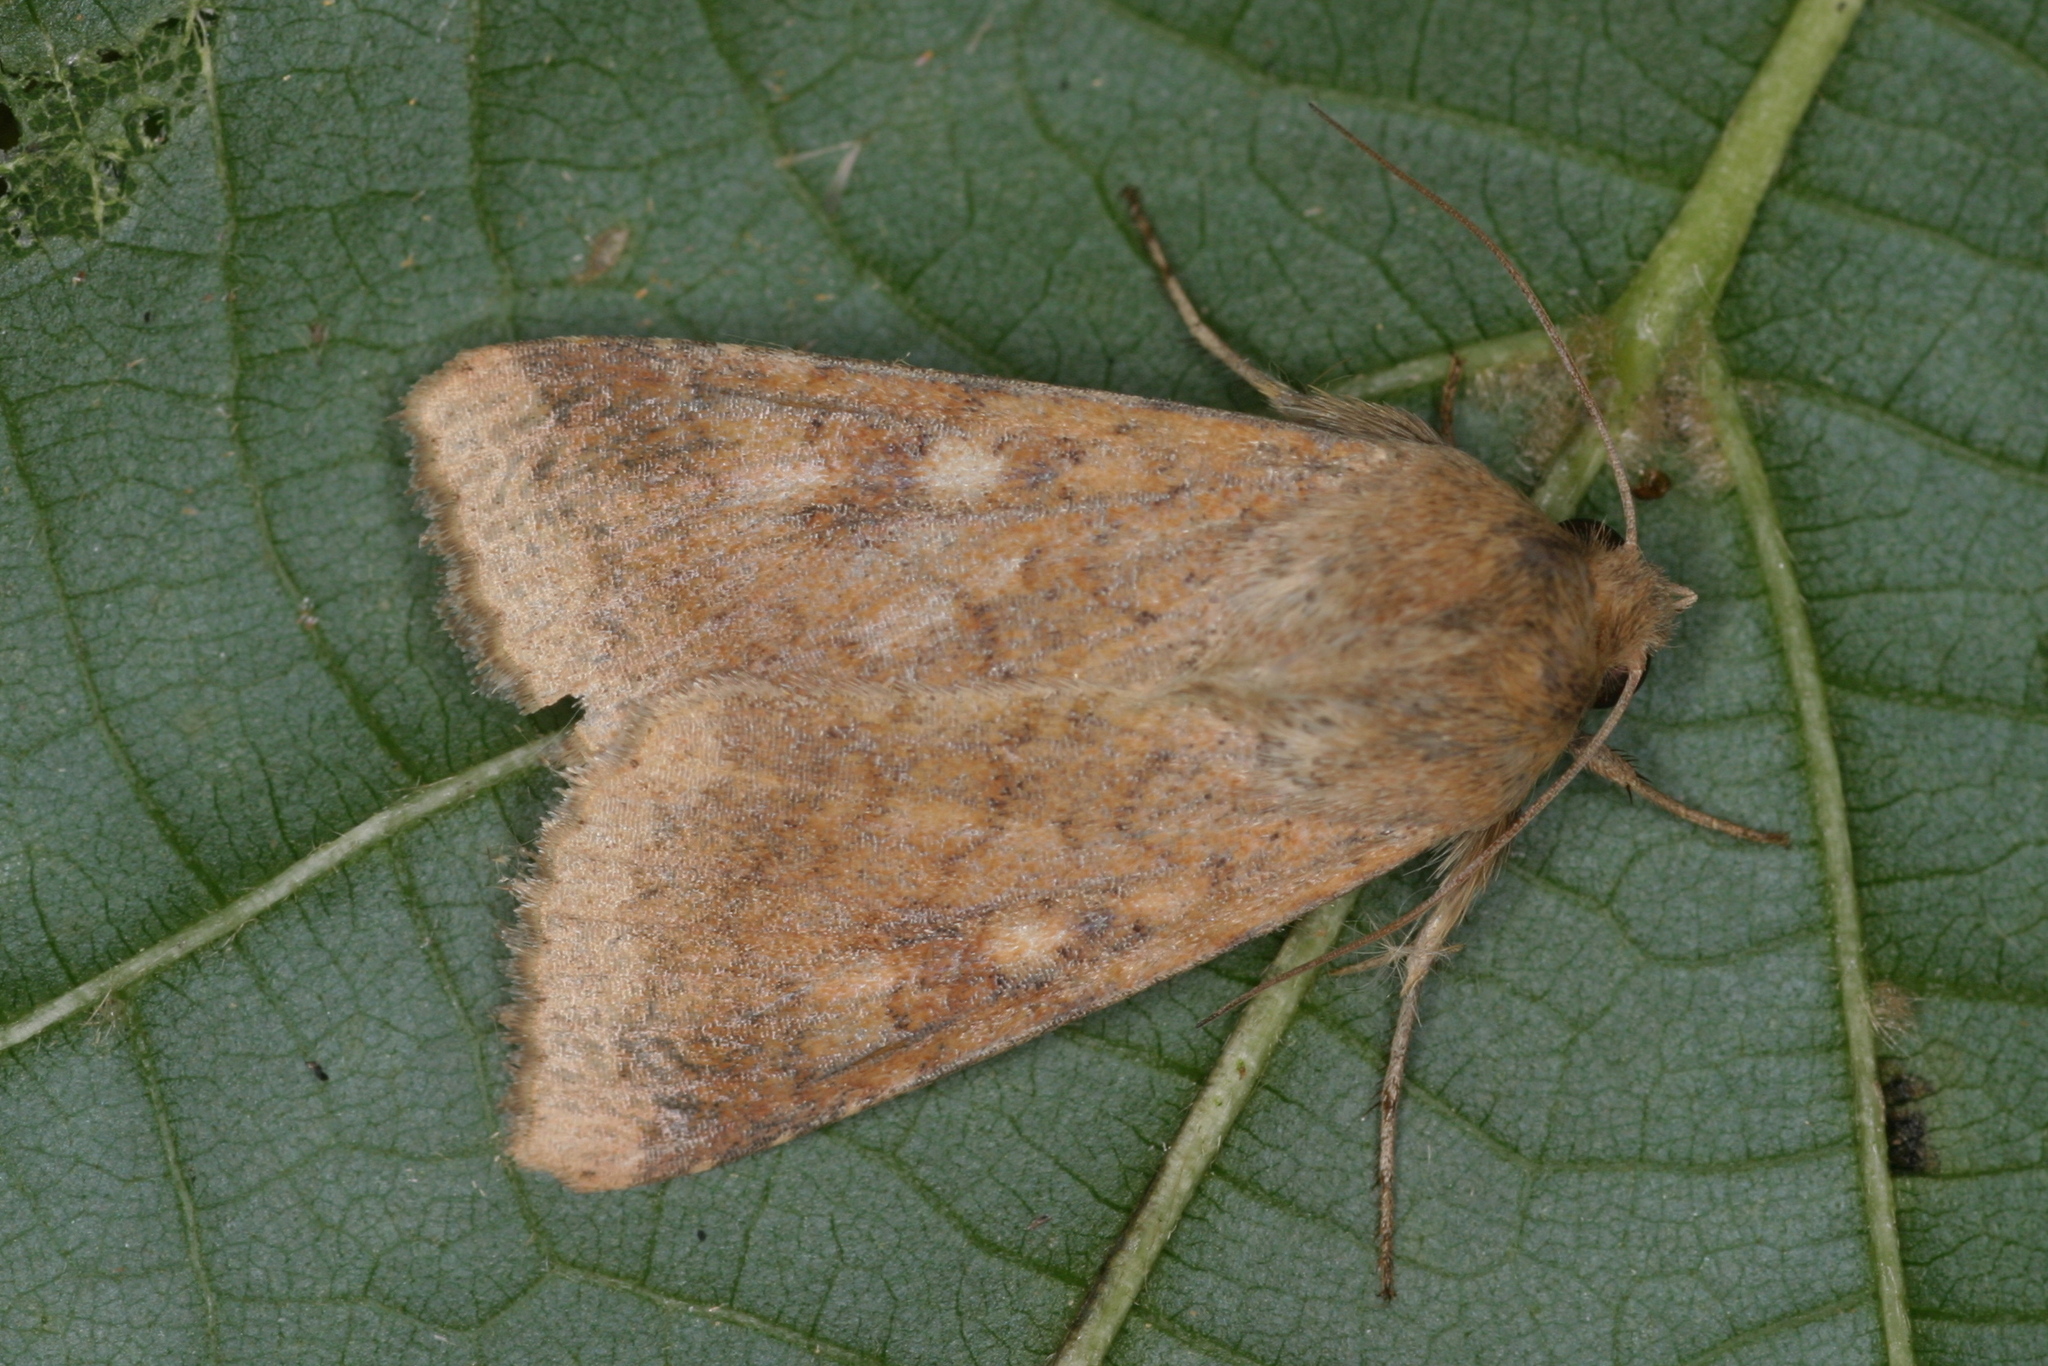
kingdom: Animalia
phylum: Arthropoda
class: Insecta
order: Lepidoptera
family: Noctuidae
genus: Helicoverpa
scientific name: Helicoverpa armigera
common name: Cotton bollworm
